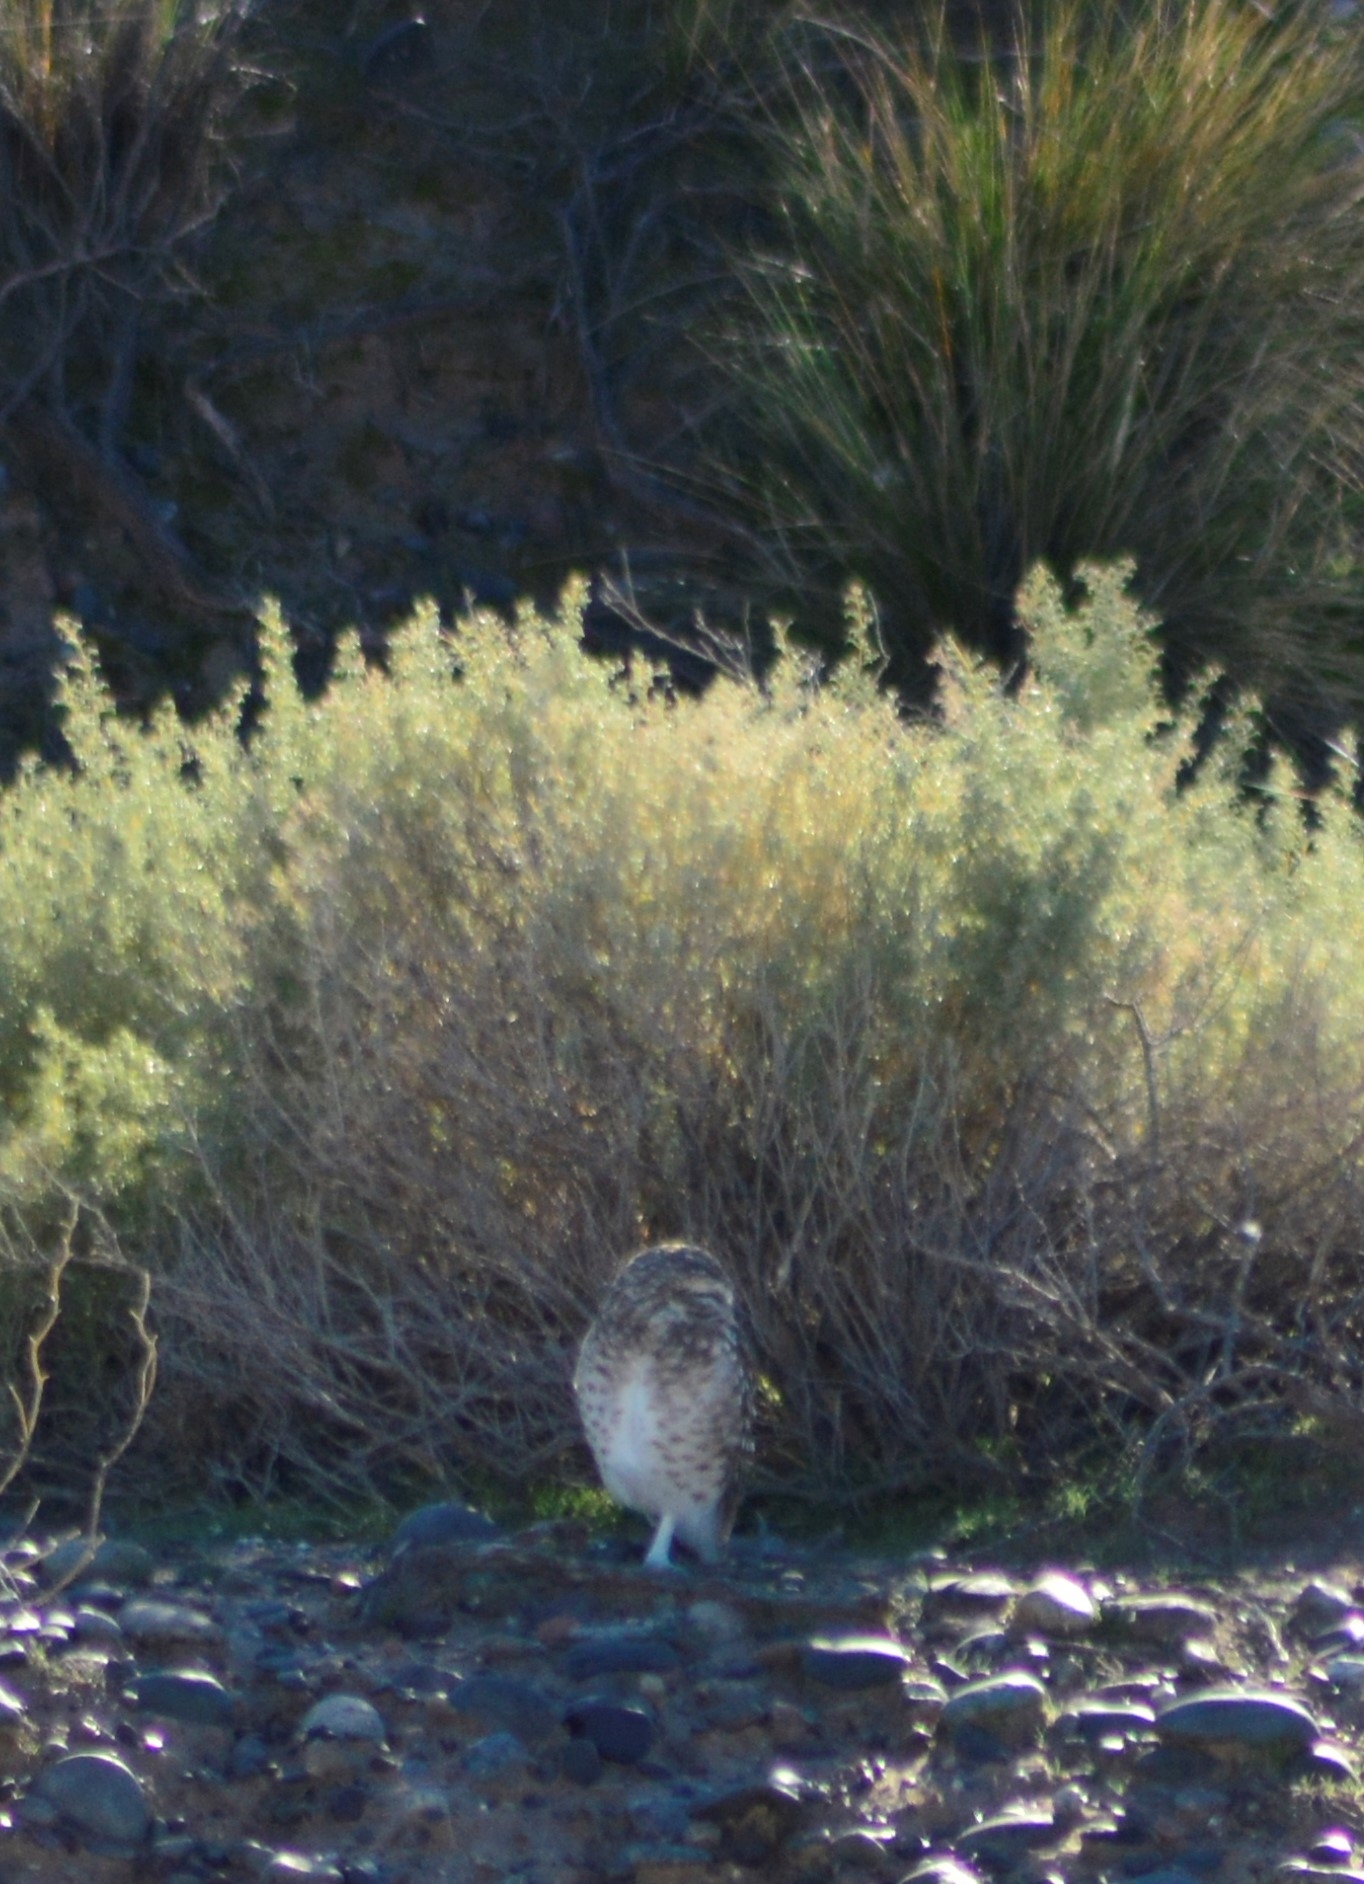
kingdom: Animalia
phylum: Chordata
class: Aves
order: Strigiformes
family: Strigidae
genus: Athene
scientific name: Athene cunicularia
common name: Burrowing owl
